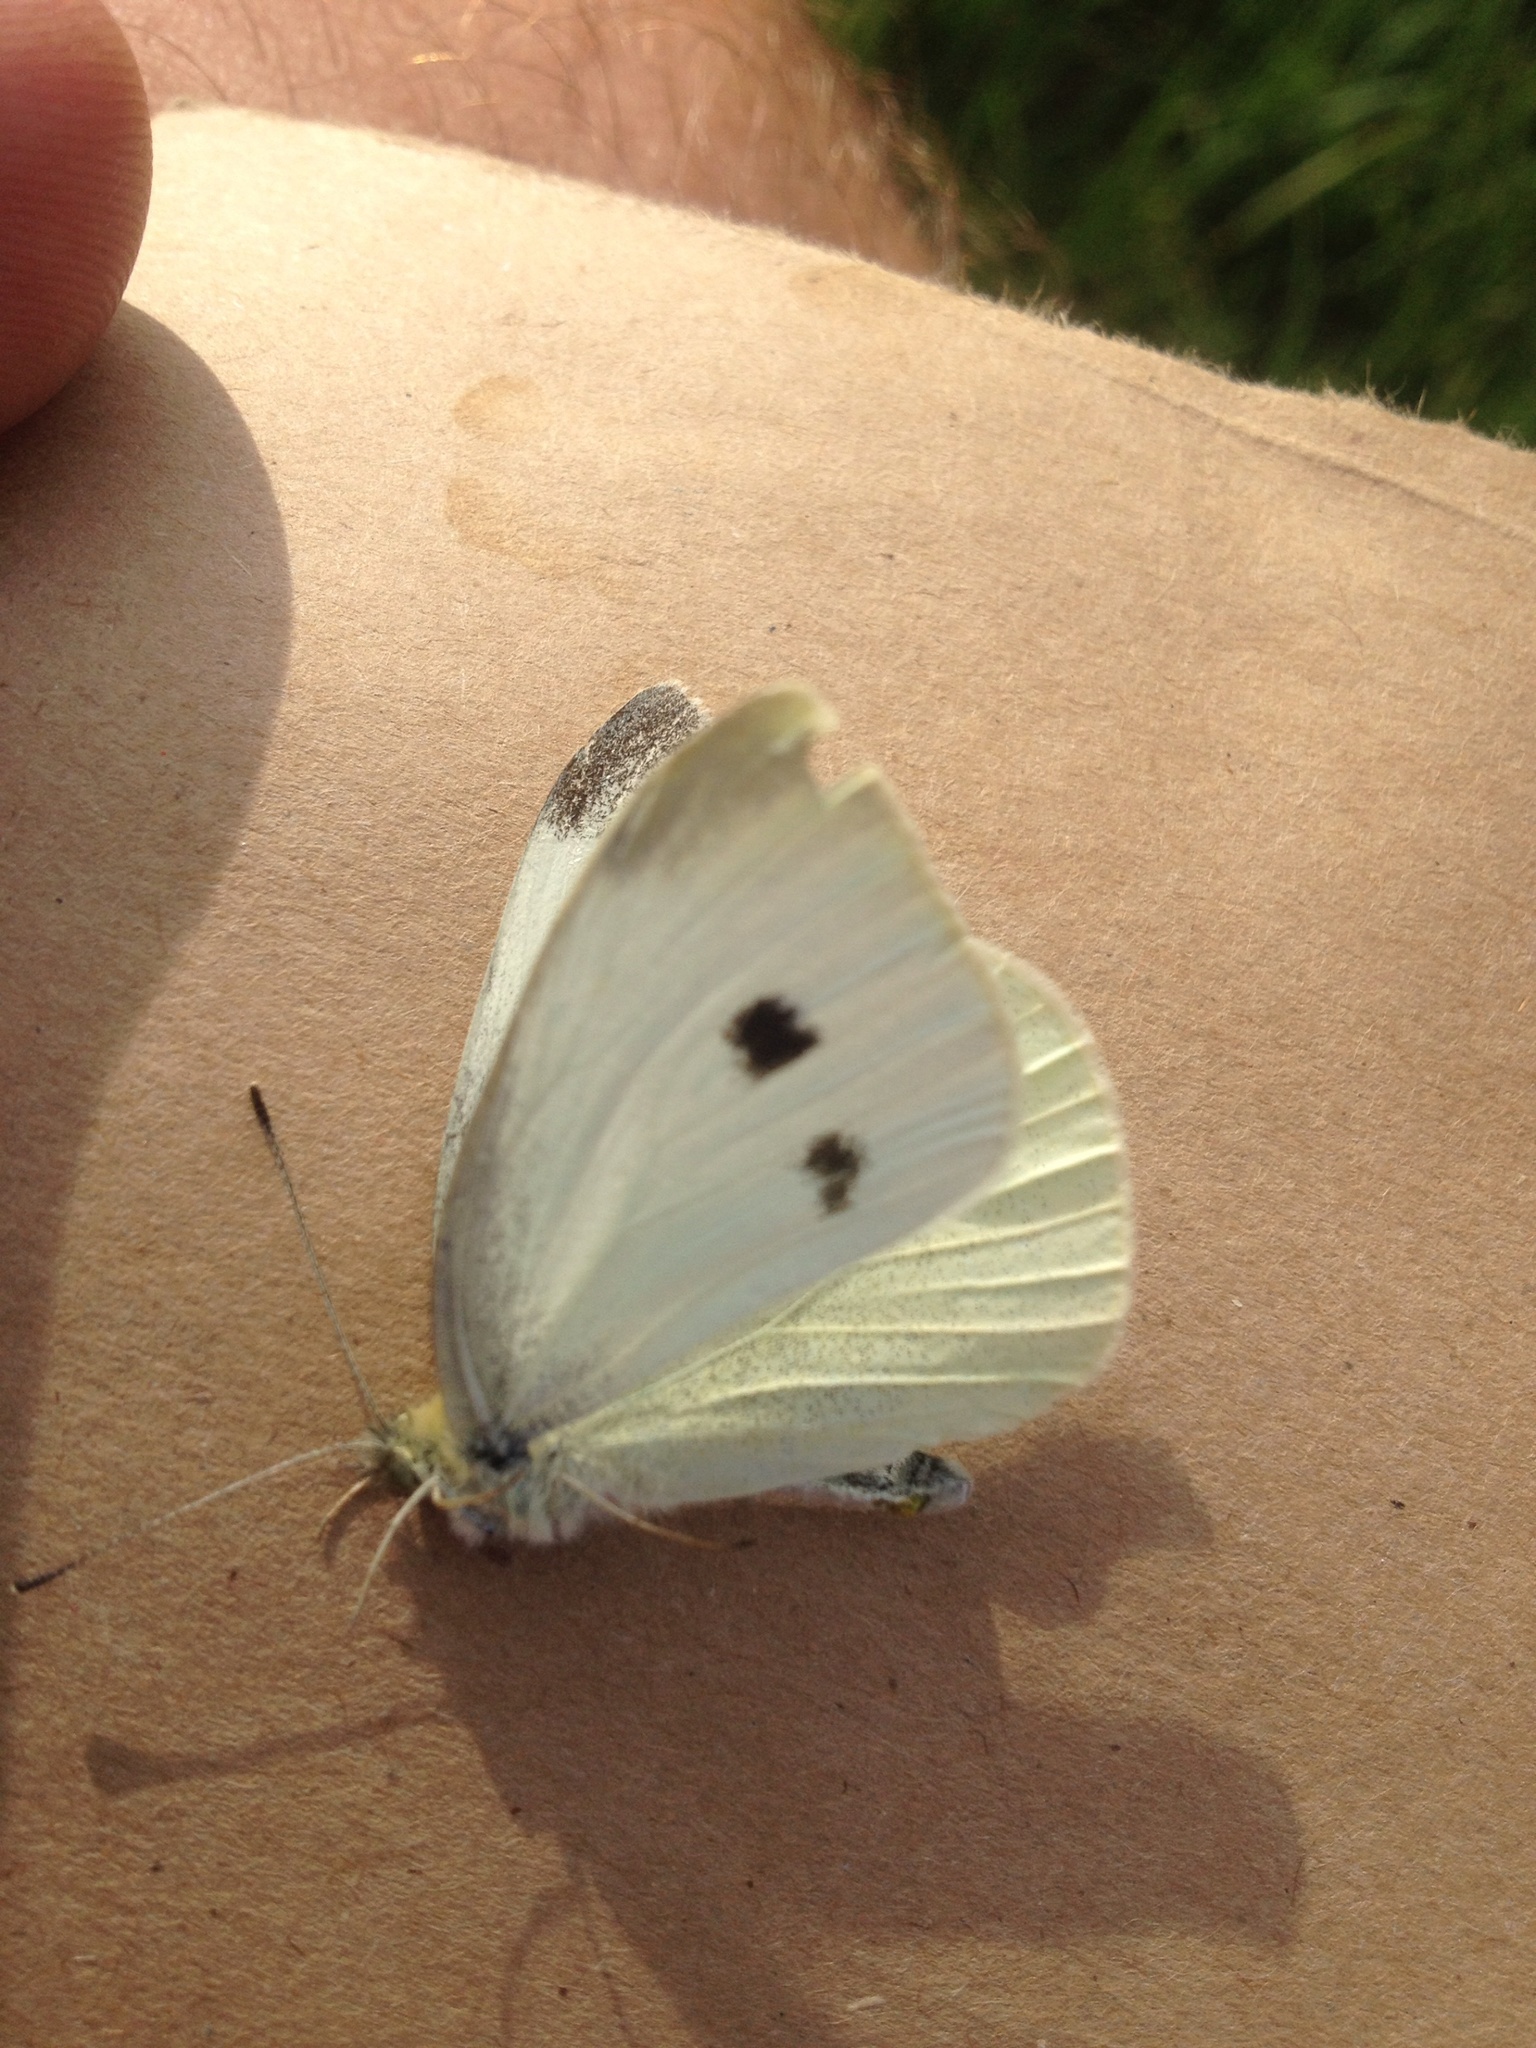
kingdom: Animalia
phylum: Arthropoda
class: Insecta
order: Lepidoptera
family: Pieridae
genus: Pieris
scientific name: Pieris rapae
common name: Small white
